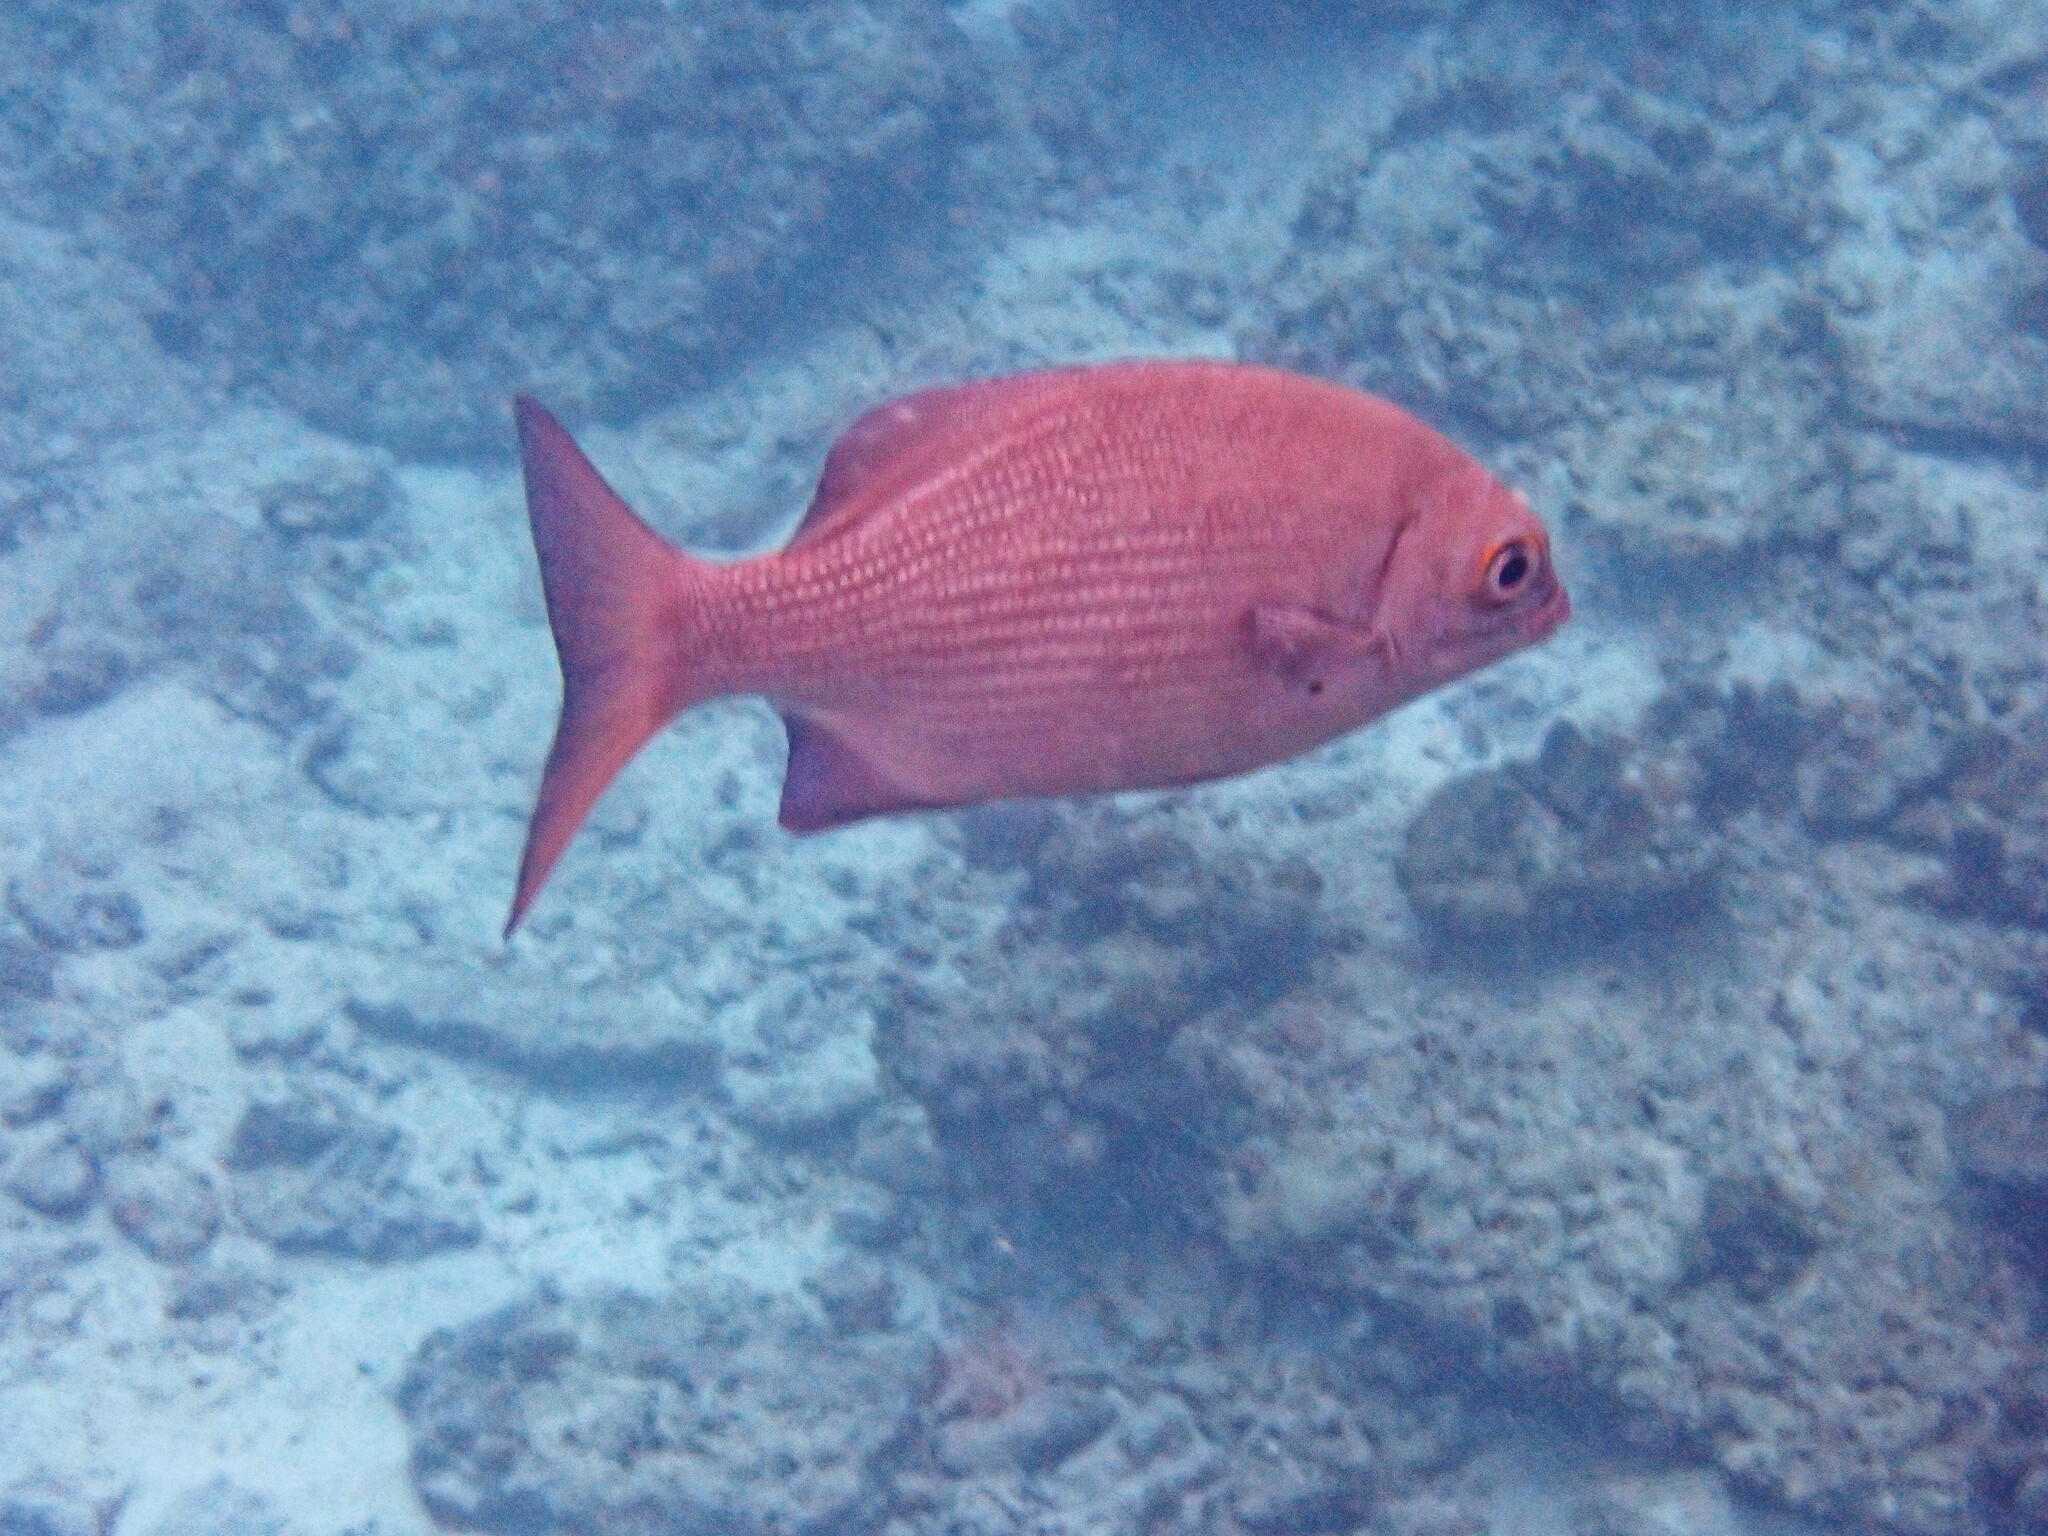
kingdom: Animalia
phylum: Chordata
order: Perciformes
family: Kyphosidae
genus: Kyphosus
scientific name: Kyphosus cinerascens
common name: Topsail drummer
